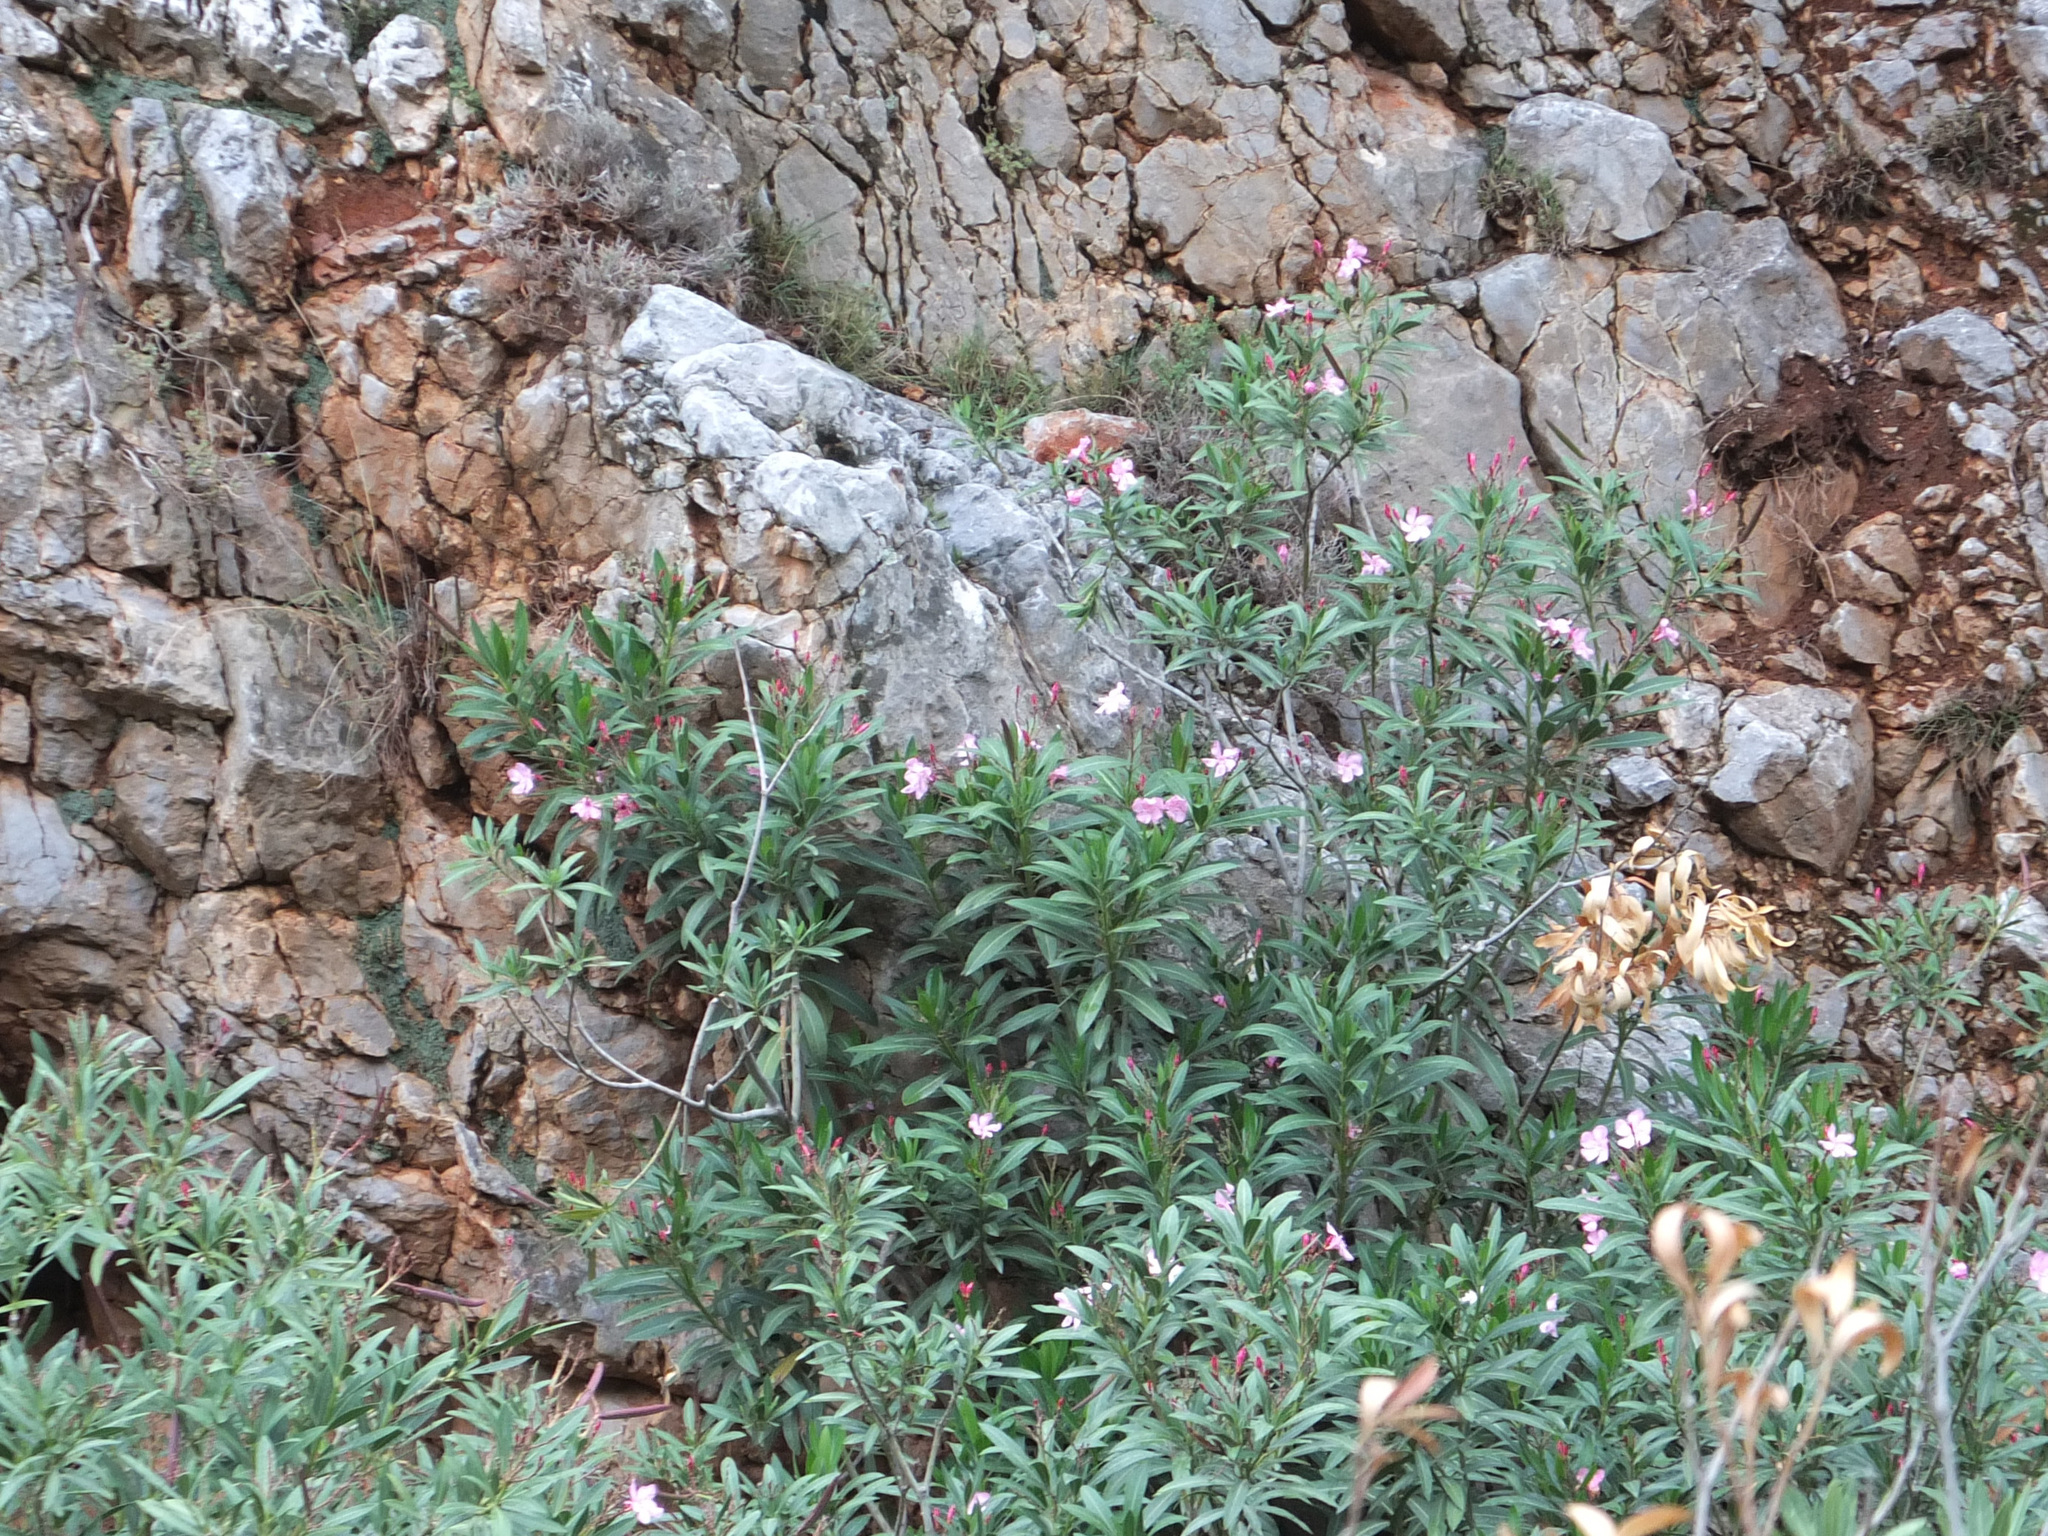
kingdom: Plantae
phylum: Tracheophyta
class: Magnoliopsida
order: Gentianales
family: Apocynaceae
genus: Nerium
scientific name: Nerium oleander
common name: Oleander
